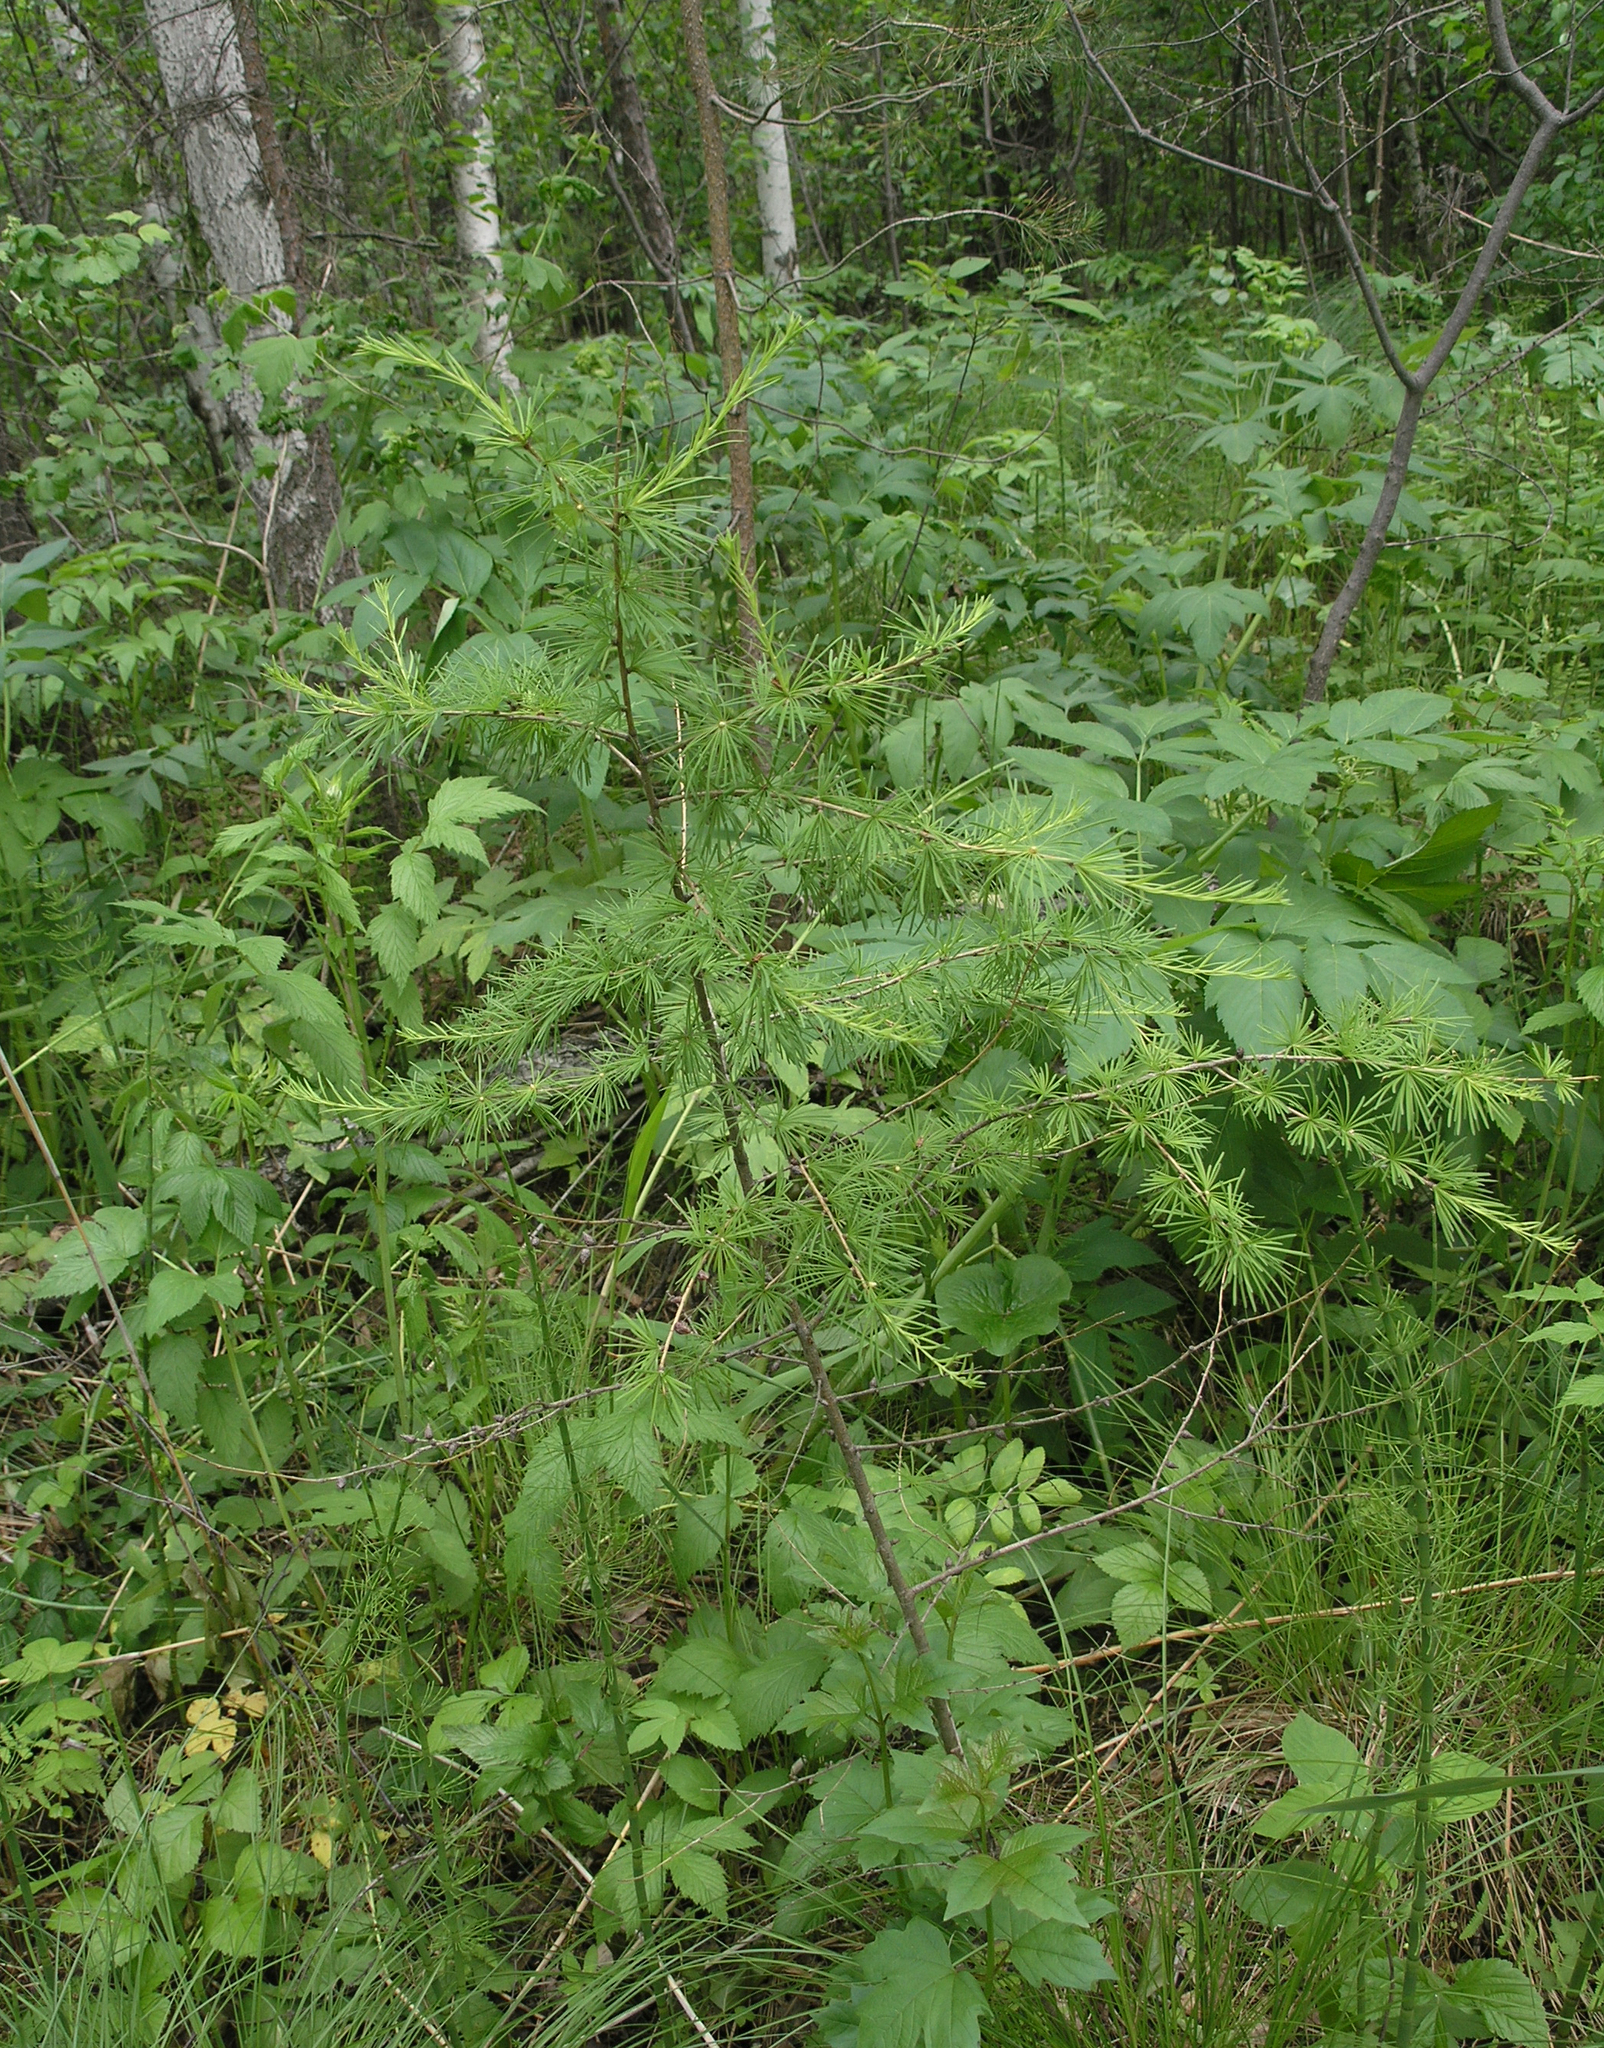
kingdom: Plantae
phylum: Tracheophyta
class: Pinopsida
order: Pinales
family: Pinaceae
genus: Larix
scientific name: Larix sibirica
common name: Siberian larch
